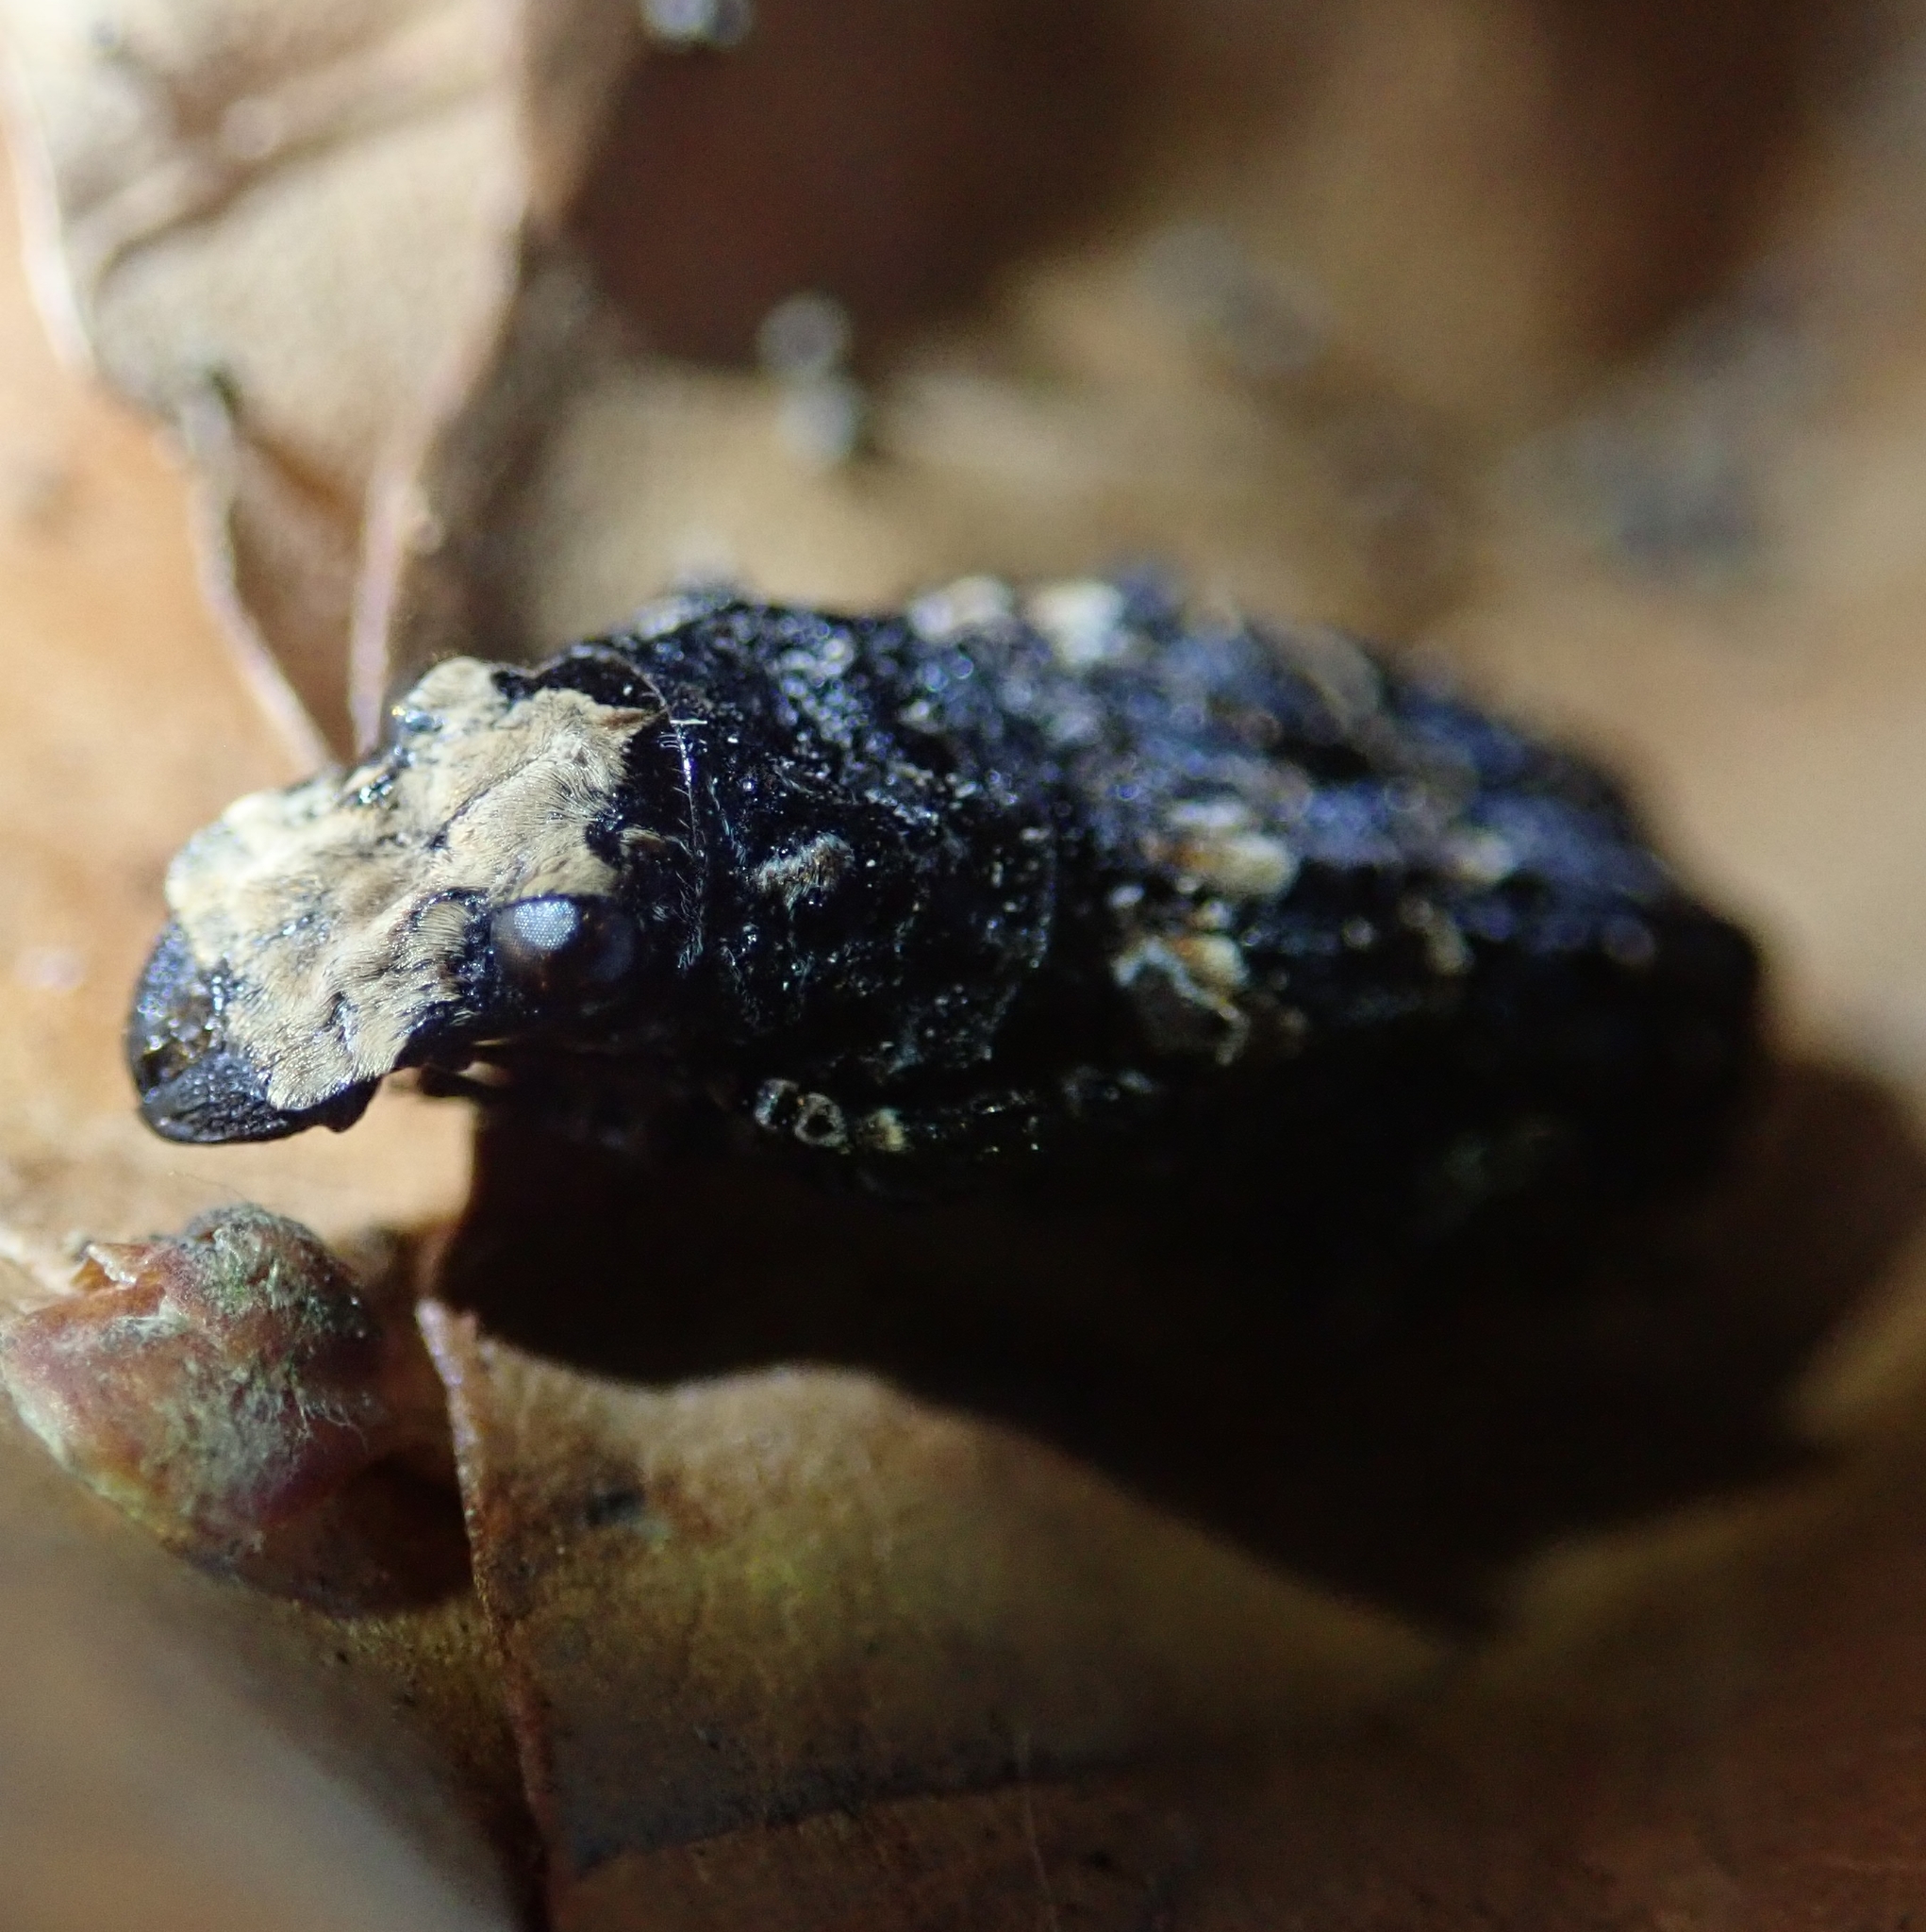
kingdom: Animalia
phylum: Arthropoda
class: Insecta
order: Coleoptera
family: Anthribidae
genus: Platyrhinus
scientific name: Platyrhinus resinosus
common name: Cramp-ball fungus weevil
